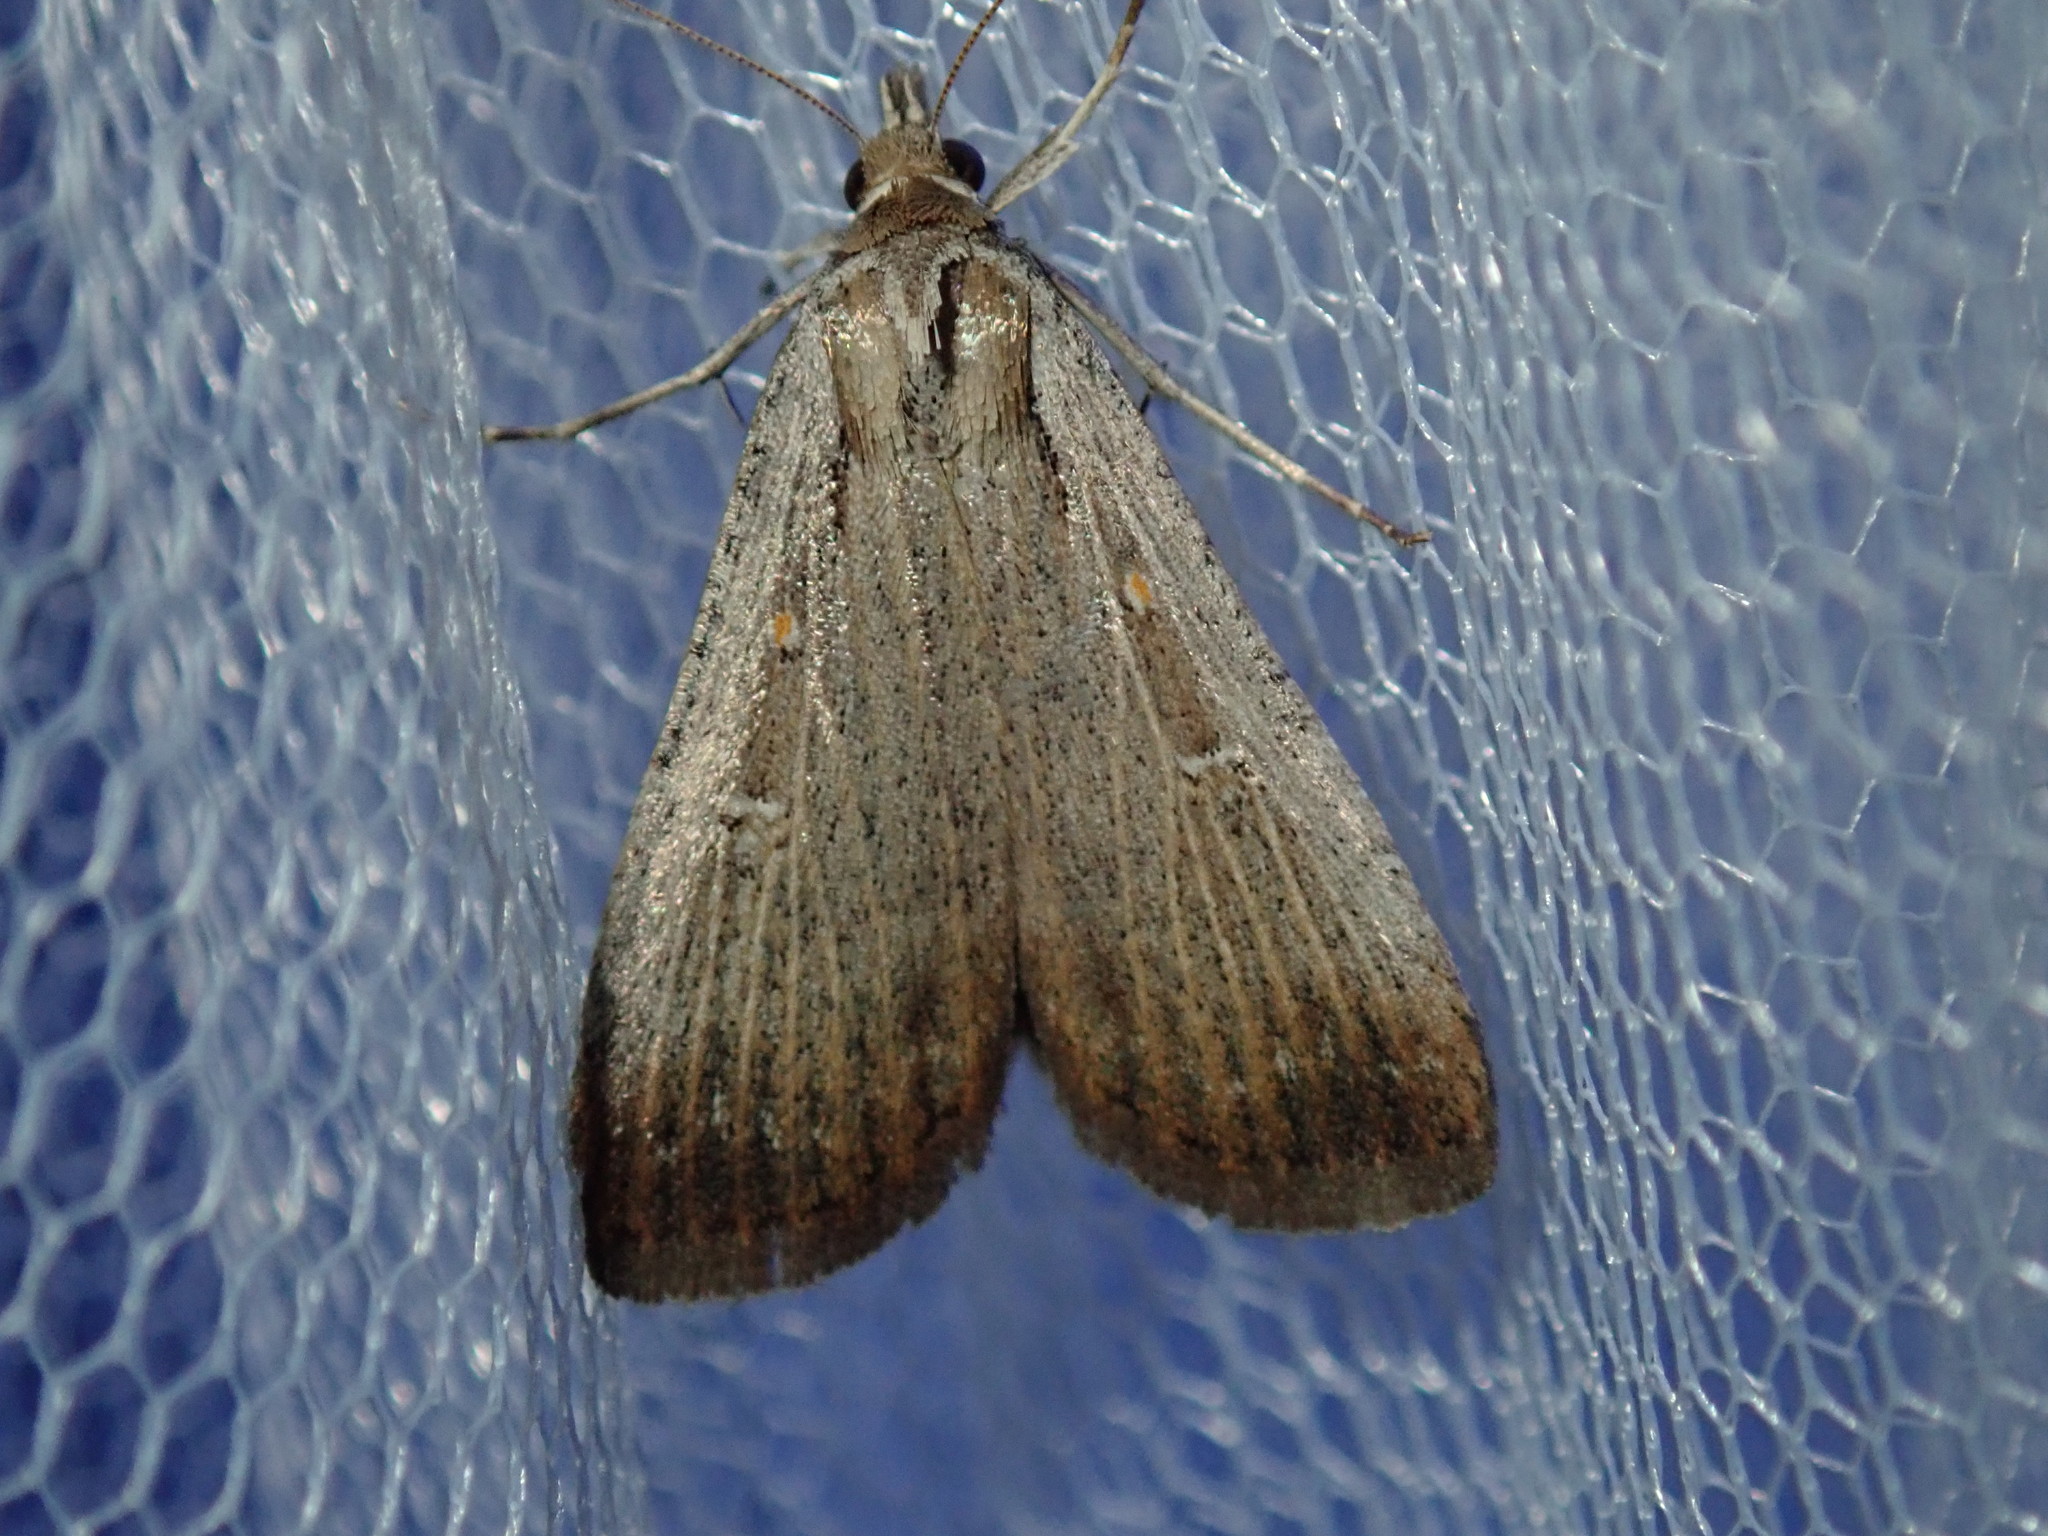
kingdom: Animalia
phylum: Arthropoda
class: Insecta
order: Lepidoptera
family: Noctuidae
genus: Tathorhynchus
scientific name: Tathorhynchus fallax
